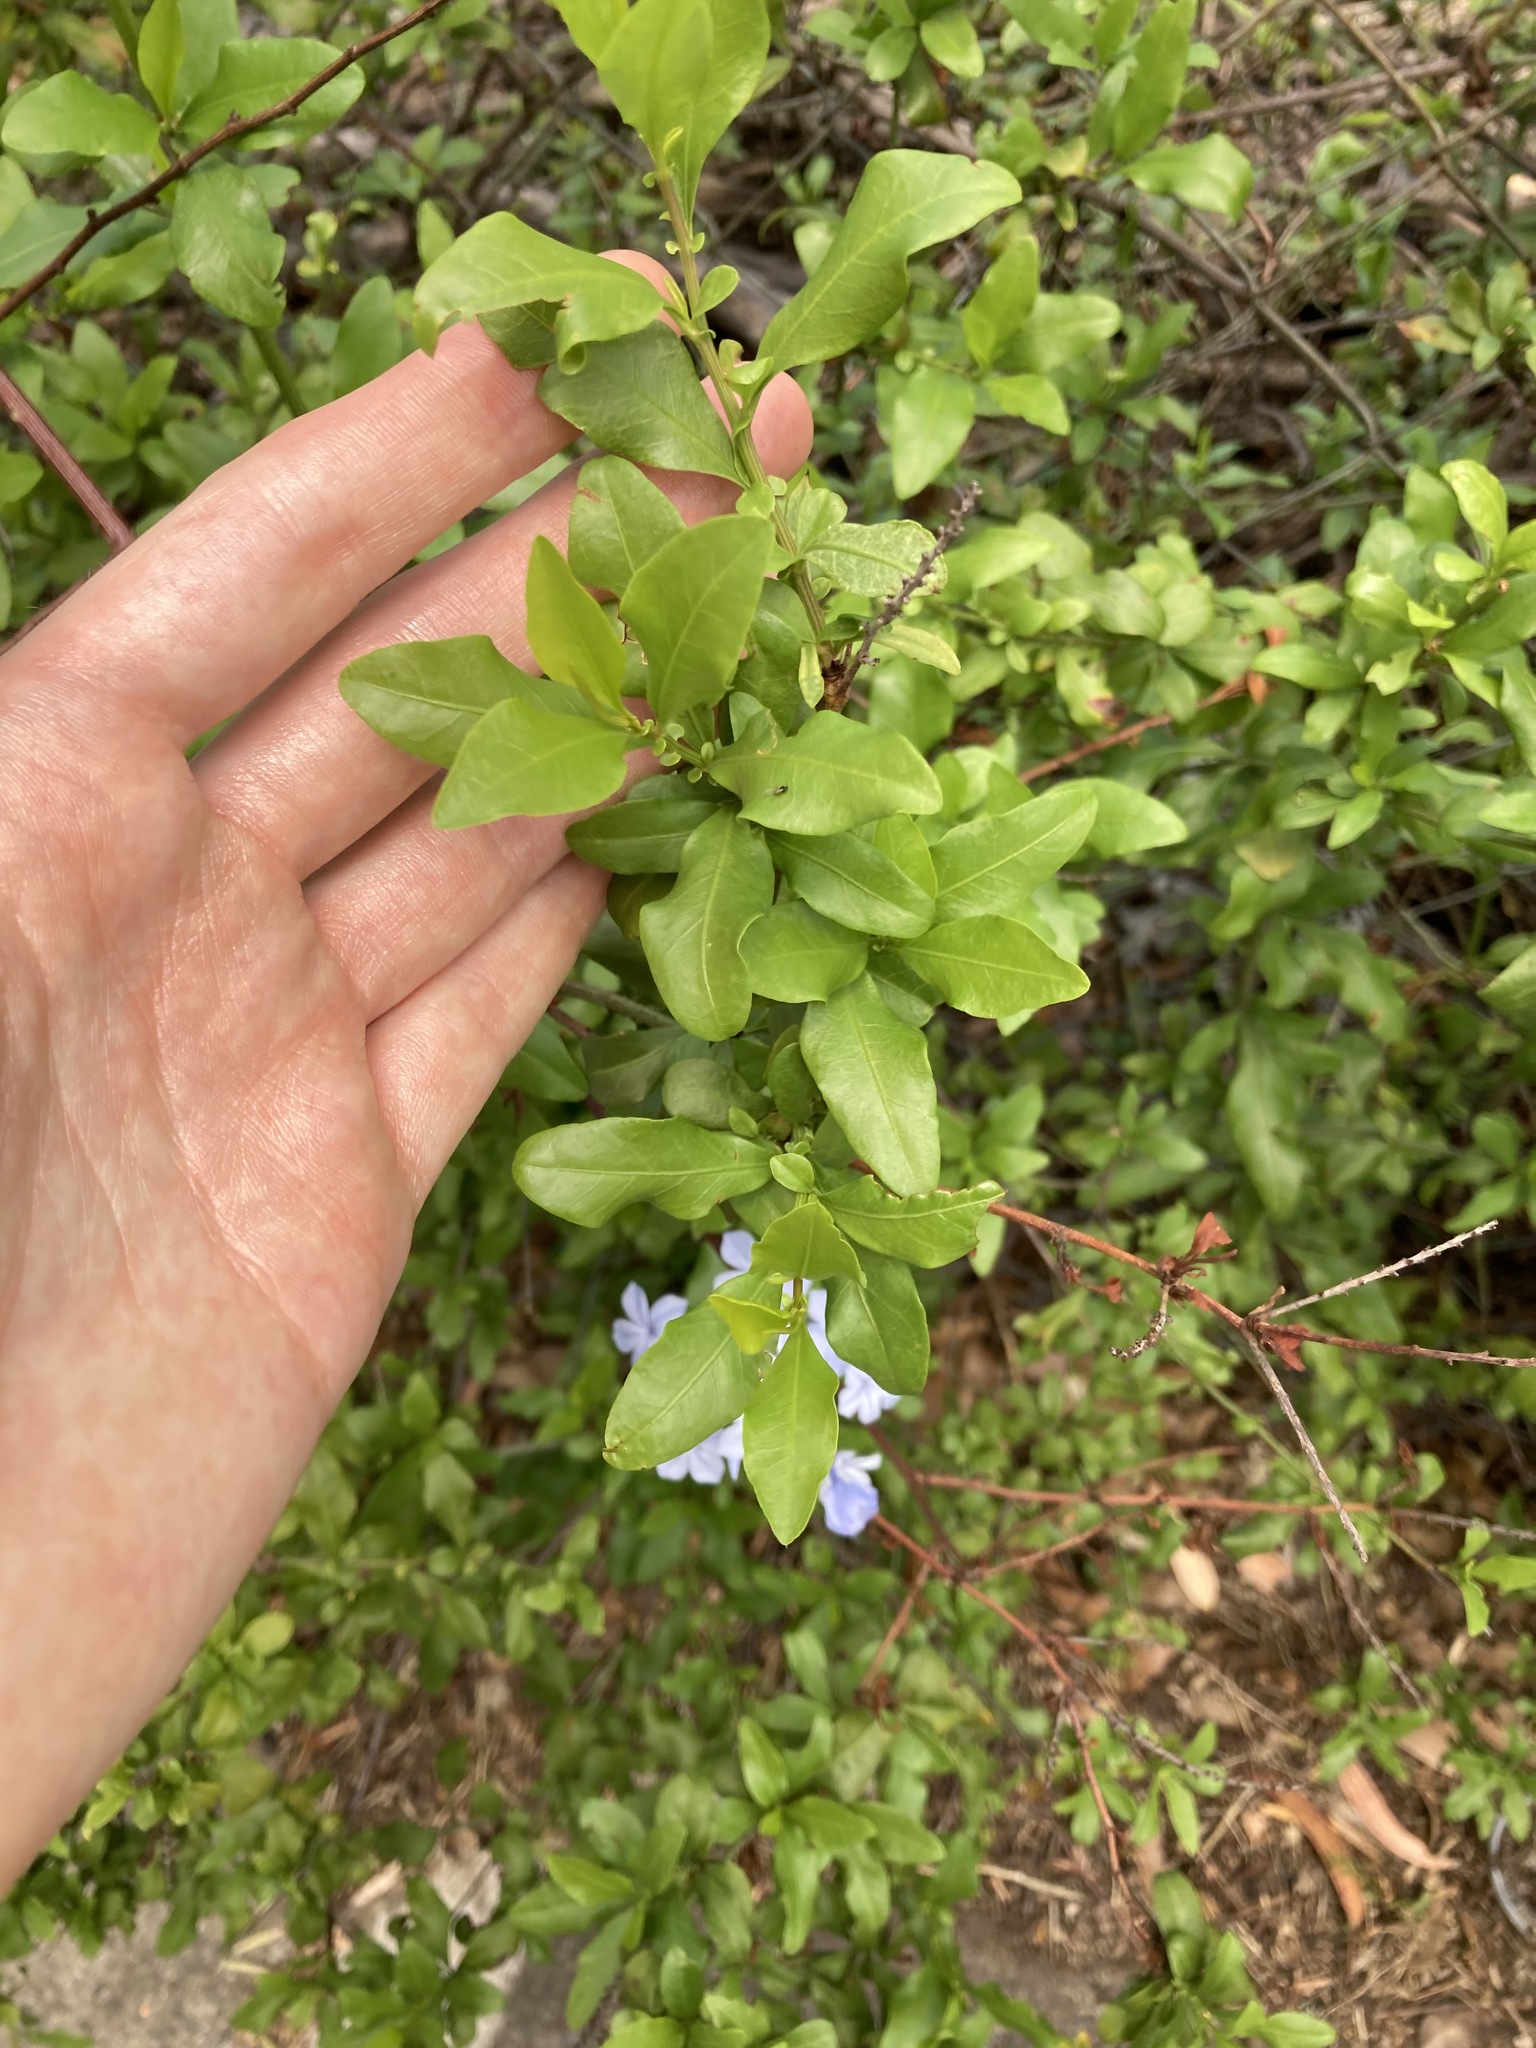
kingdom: Plantae
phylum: Tracheophyta
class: Magnoliopsida
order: Caryophyllales
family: Plumbaginaceae
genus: Plumbago
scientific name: Plumbago auriculata
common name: Cape leadwort
